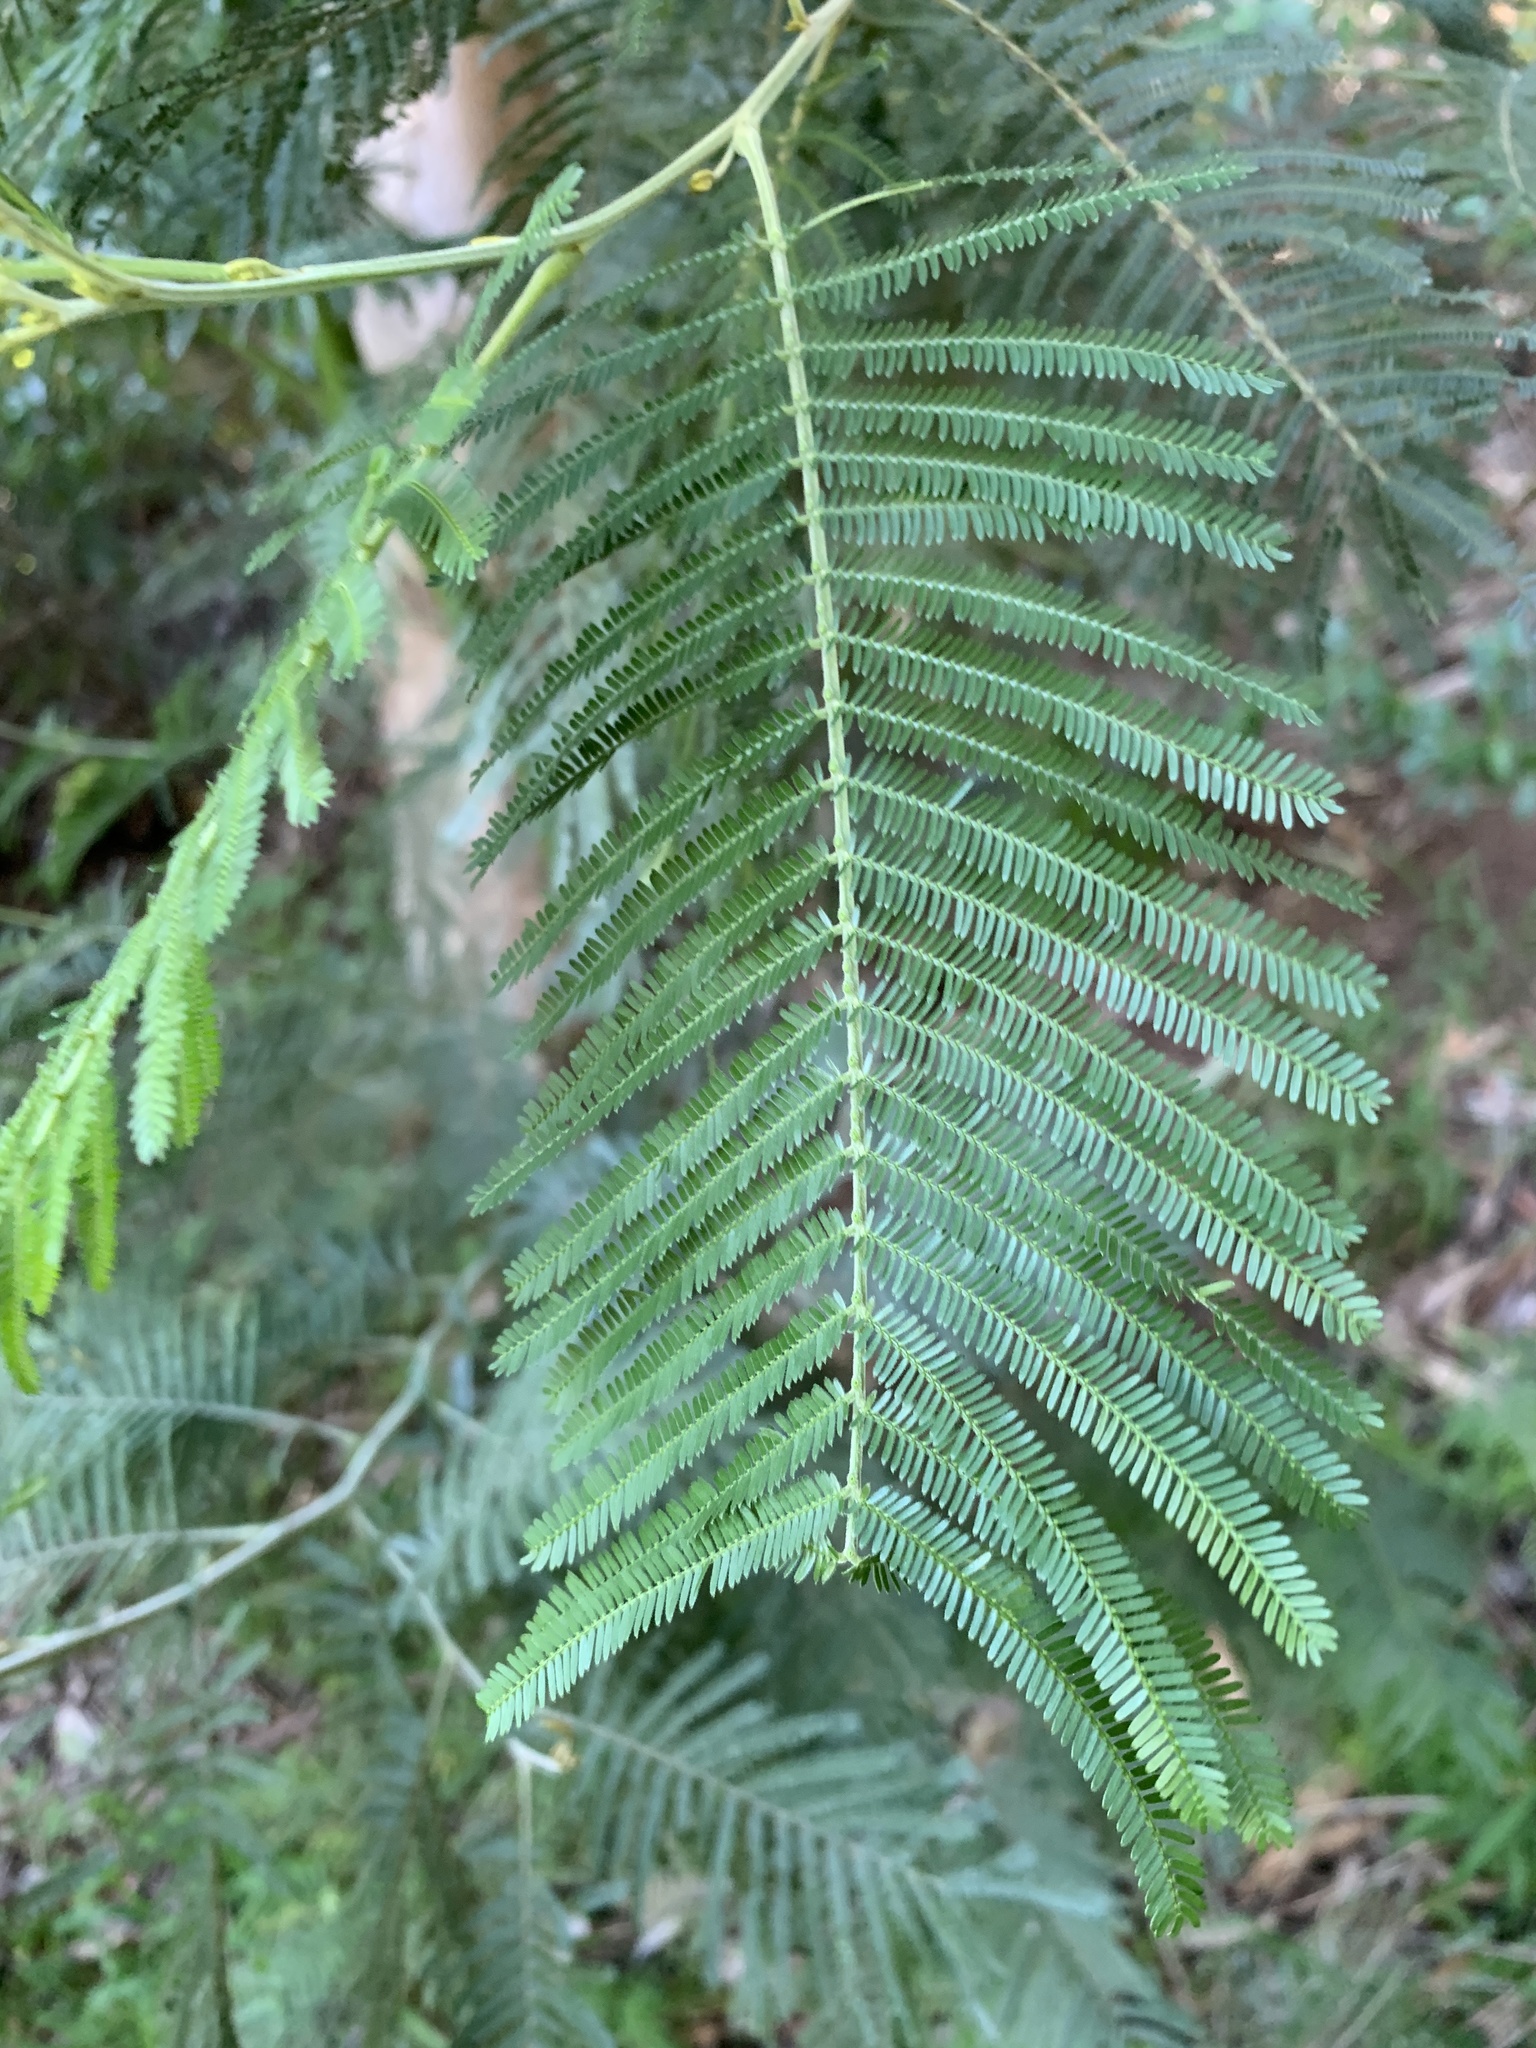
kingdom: Plantae
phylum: Tracheophyta
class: Magnoliopsida
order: Fabales
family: Fabaceae
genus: Acacia
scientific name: Acacia mearnsii
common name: Black wattle
